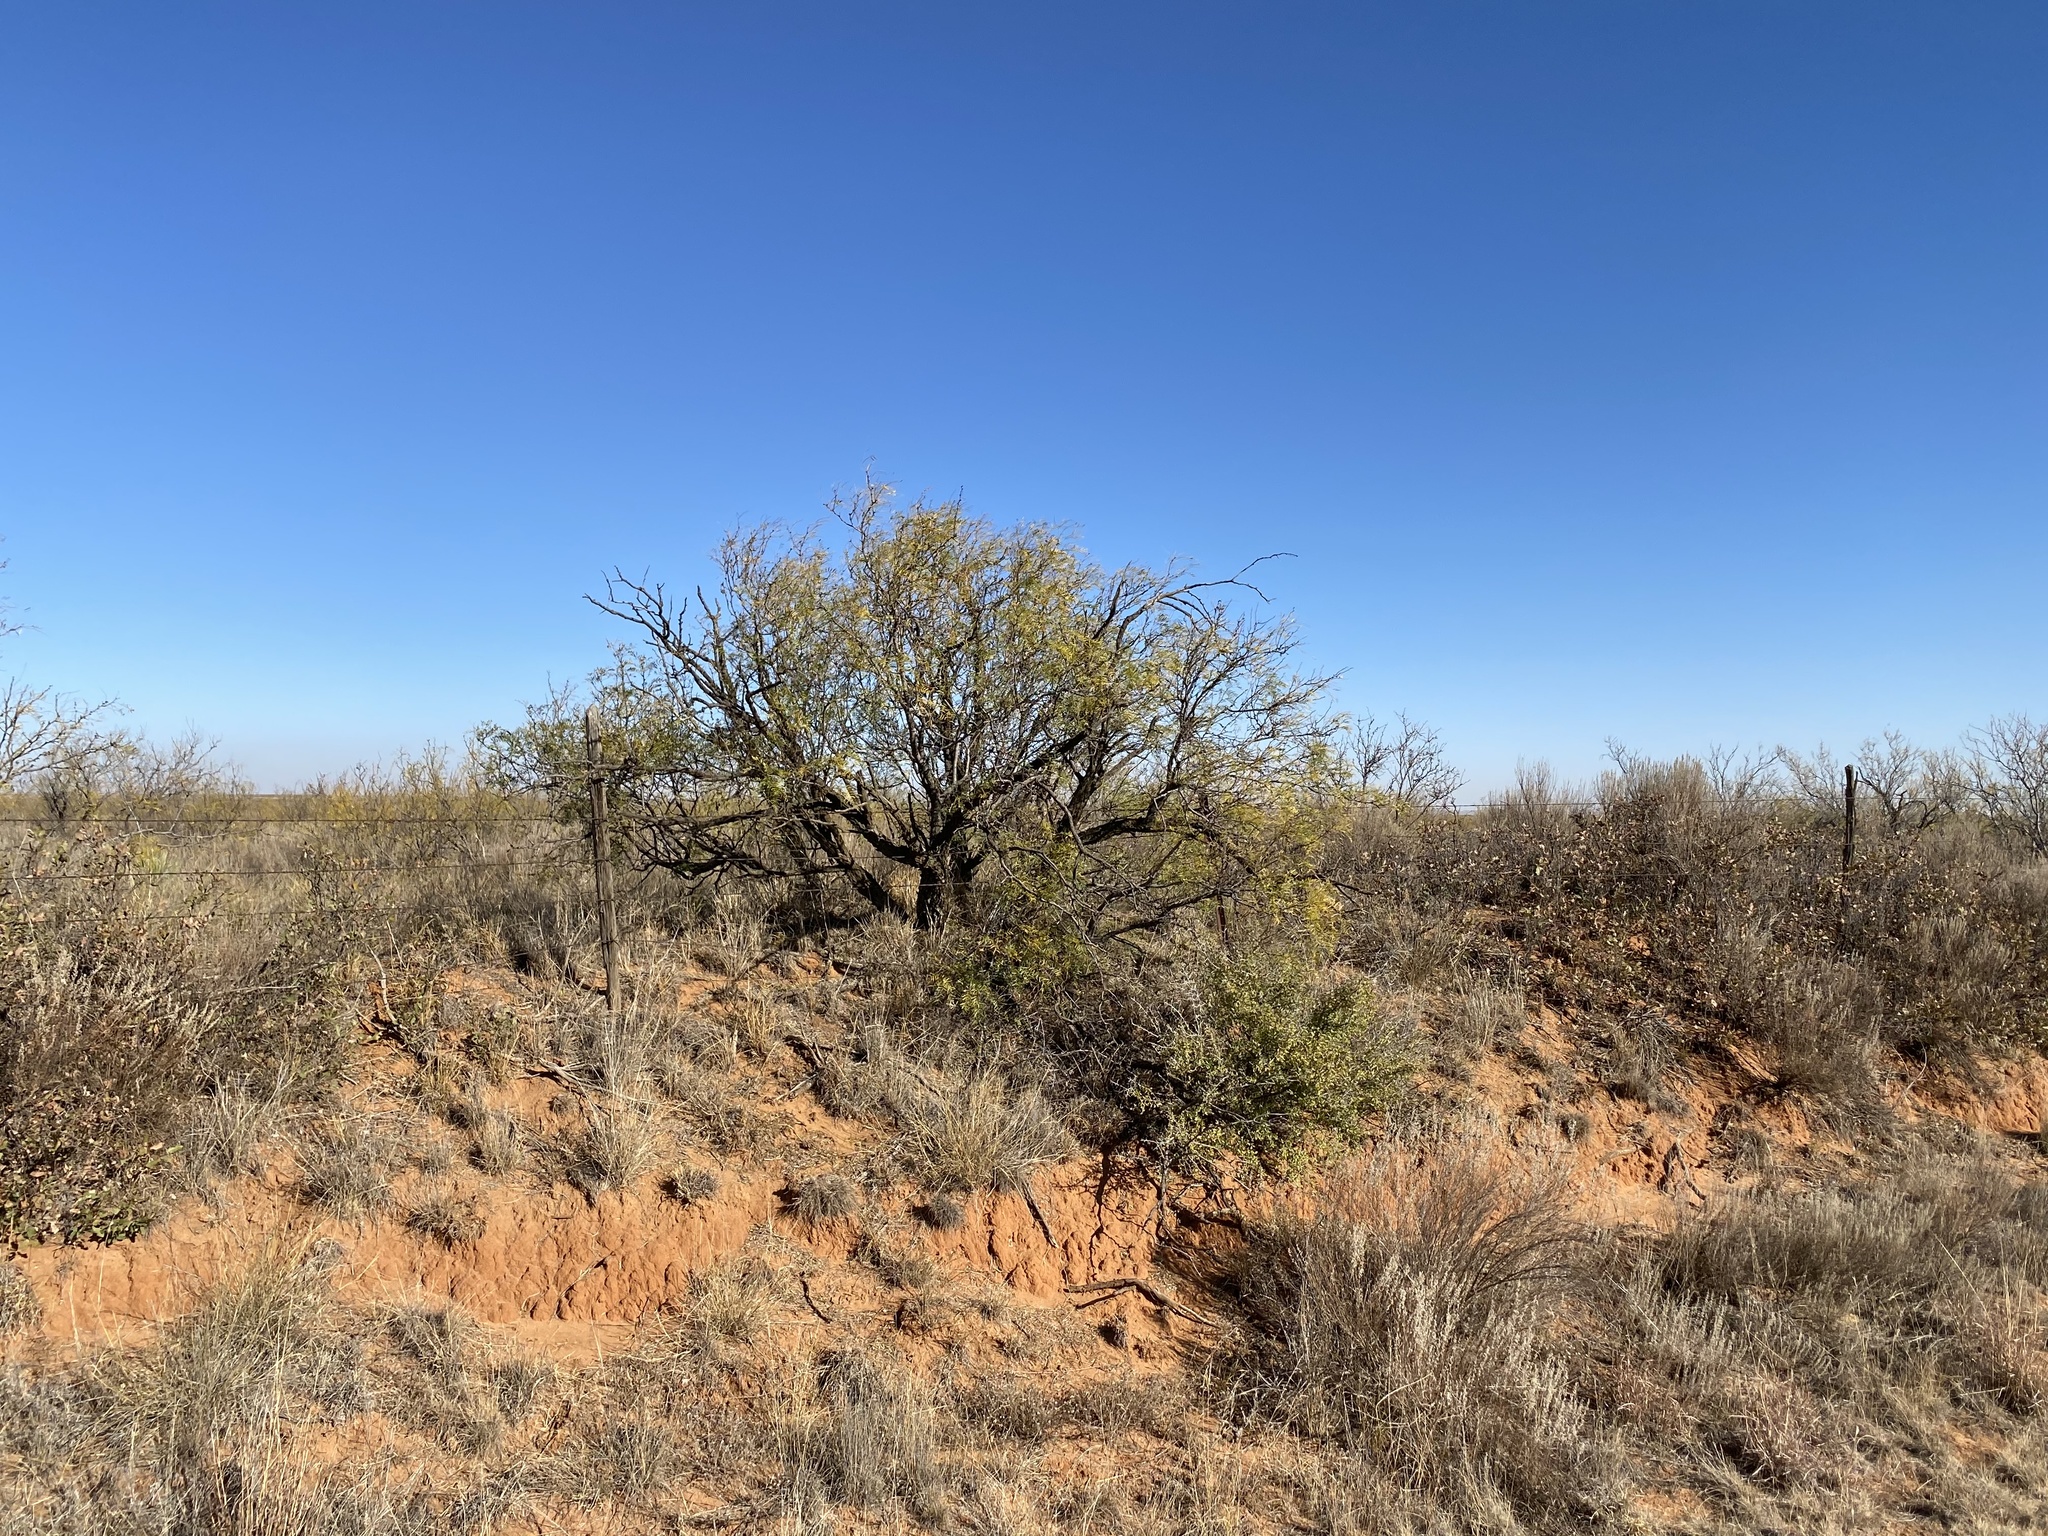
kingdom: Plantae
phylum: Tracheophyta
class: Magnoliopsida
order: Fabales
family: Fabaceae
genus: Prosopis
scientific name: Prosopis glandulosa
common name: Honey mesquite
